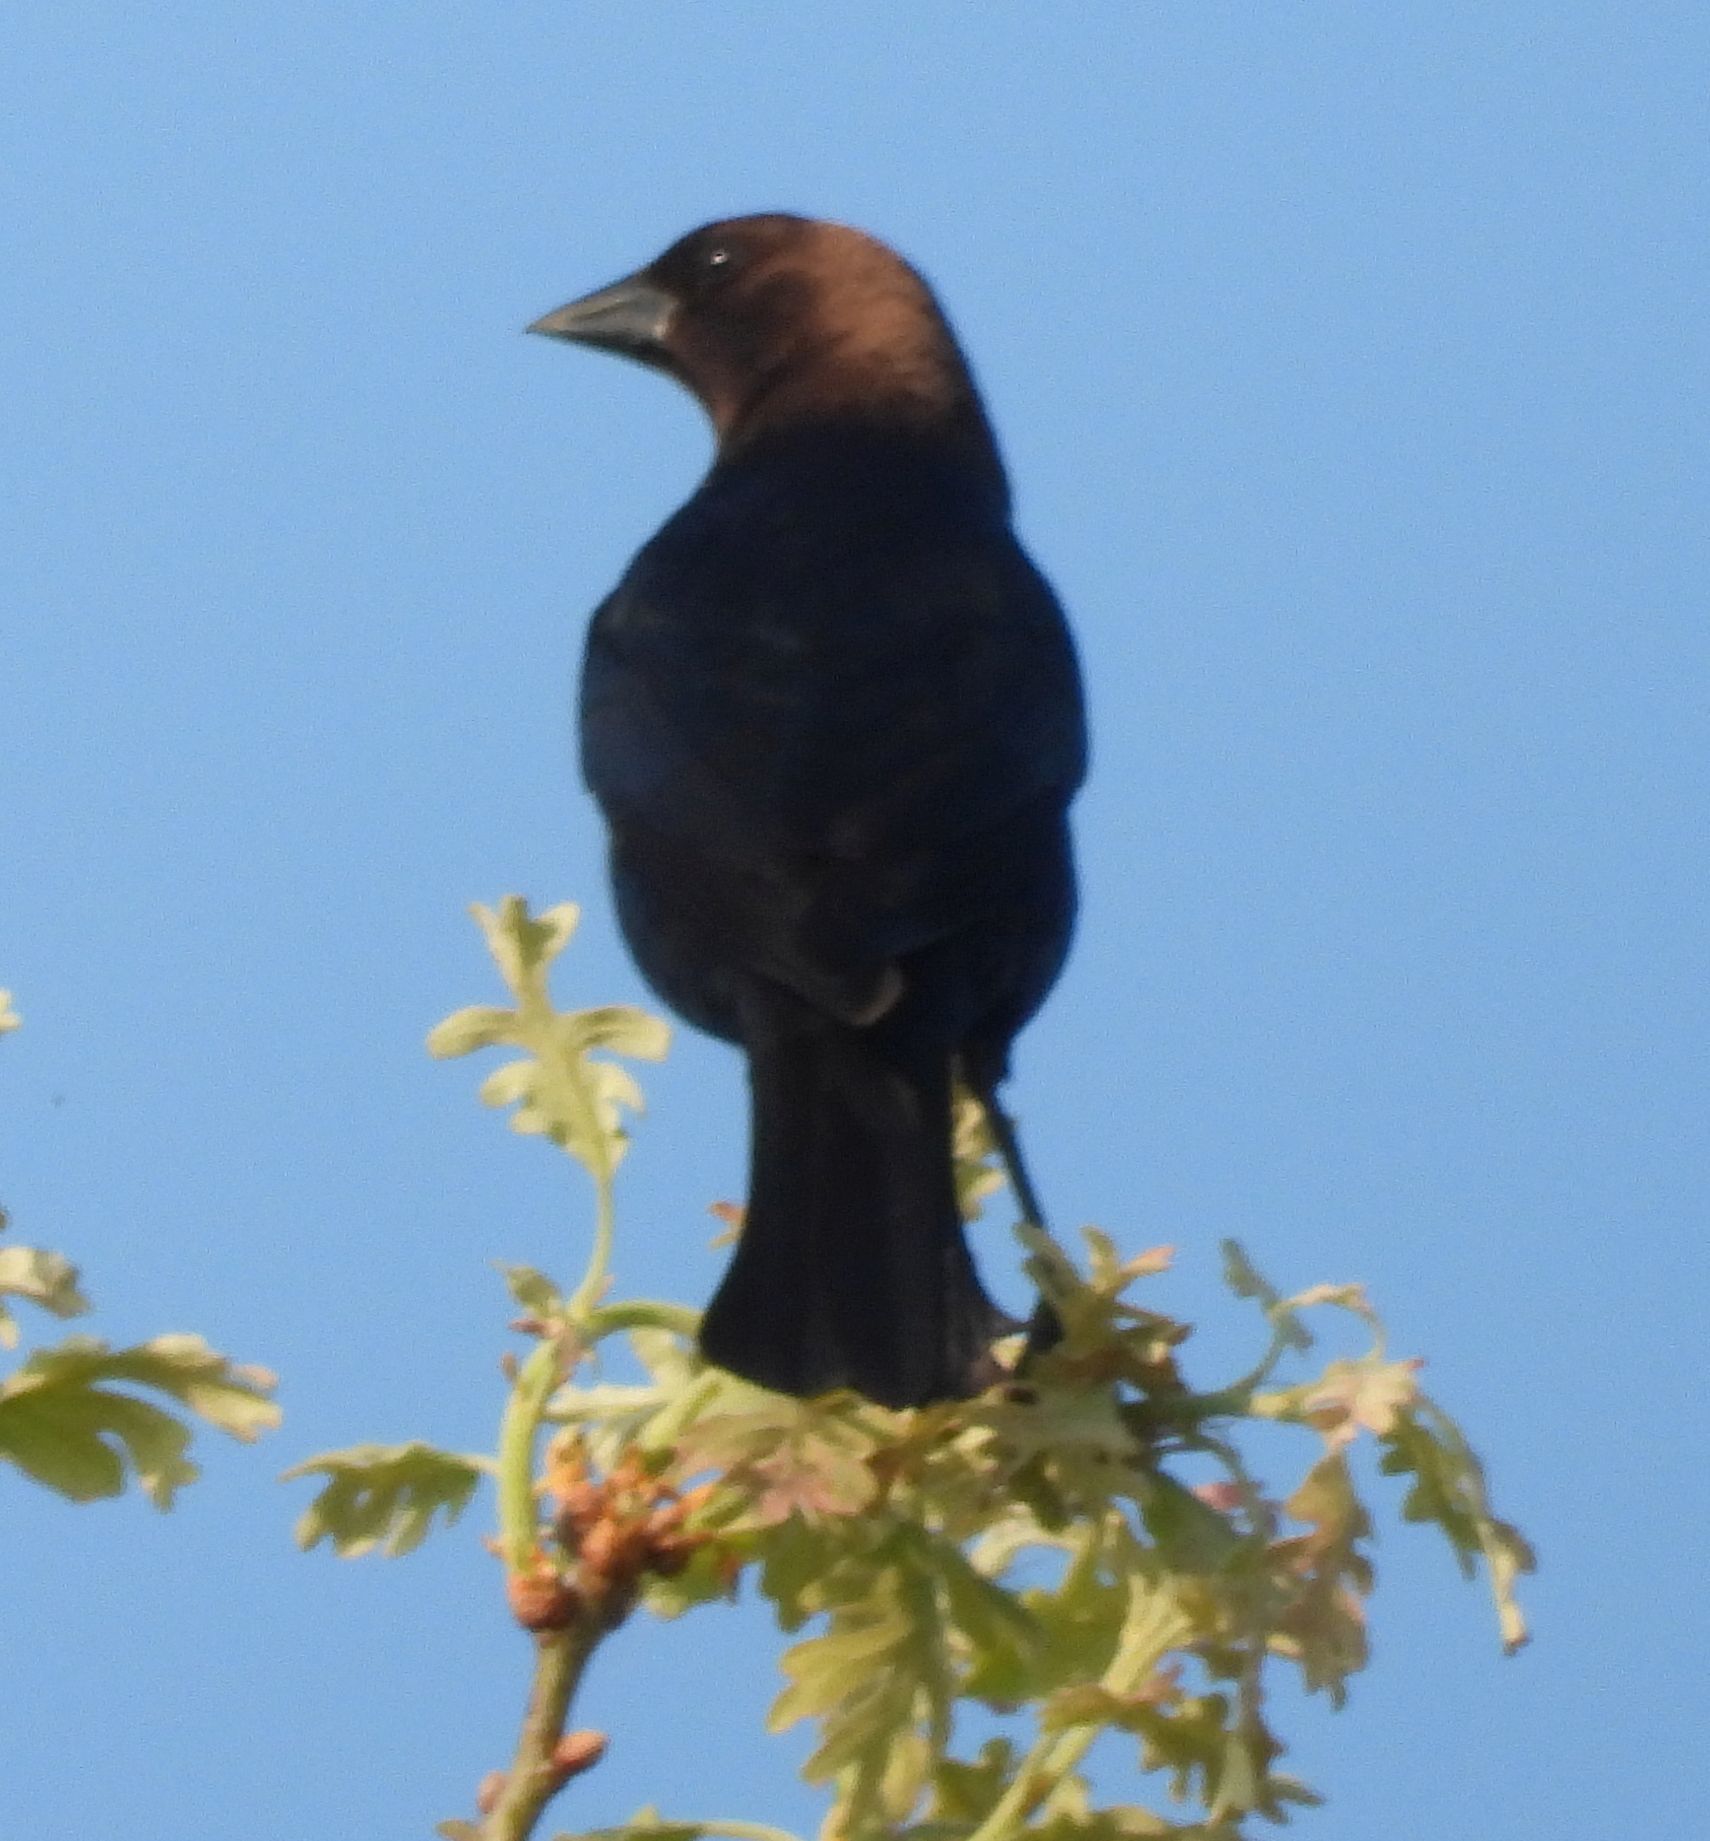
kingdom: Animalia
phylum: Chordata
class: Aves
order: Passeriformes
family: Icteridae
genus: Molothrus
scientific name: Molothrus ater
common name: Brown-headed cowbird
